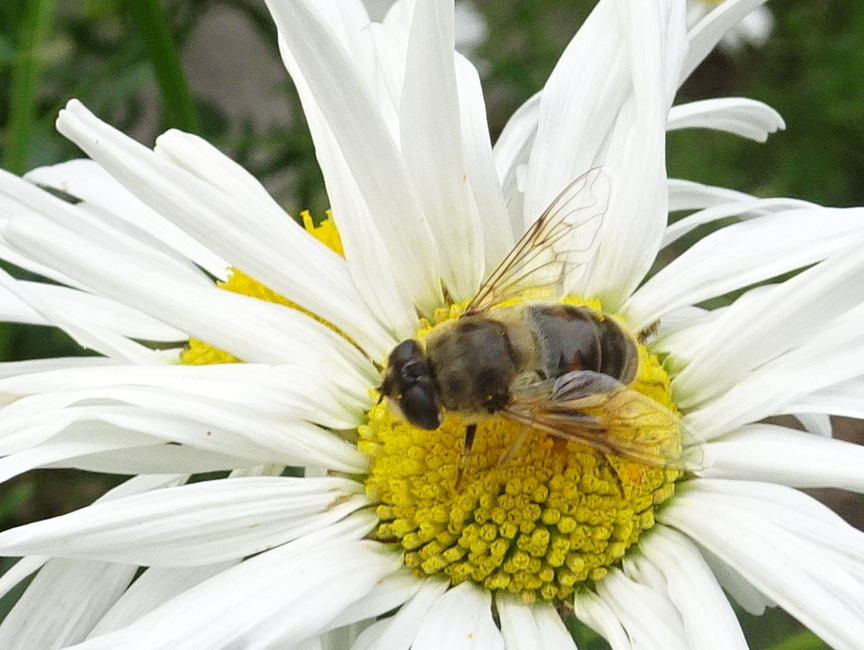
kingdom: Animalia
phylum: Arthropoda
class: Insecta
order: Diptera
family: Syrphidae
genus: Eristalis
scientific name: Eristalis tenax
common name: Drone fly
